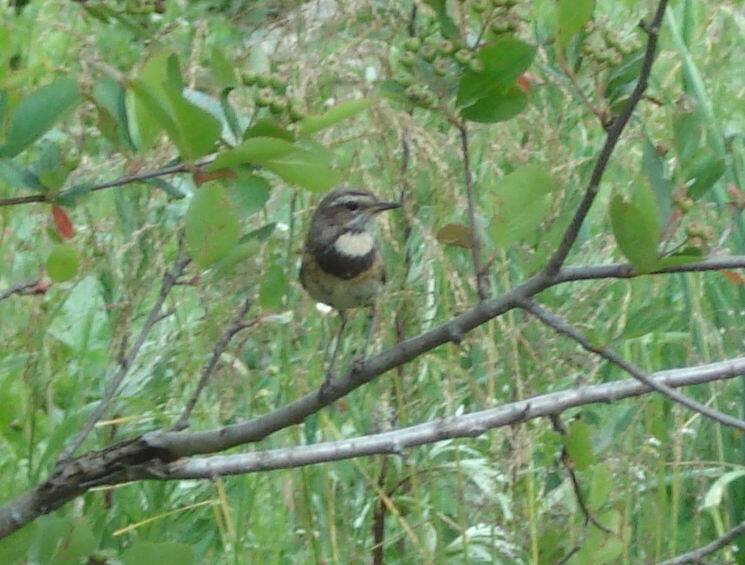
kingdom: Animalia
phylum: Chordata
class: Aves
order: Passeriformes
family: Muscicapidae
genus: Luscinia
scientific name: Luscinia svecica
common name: Bluethroat
